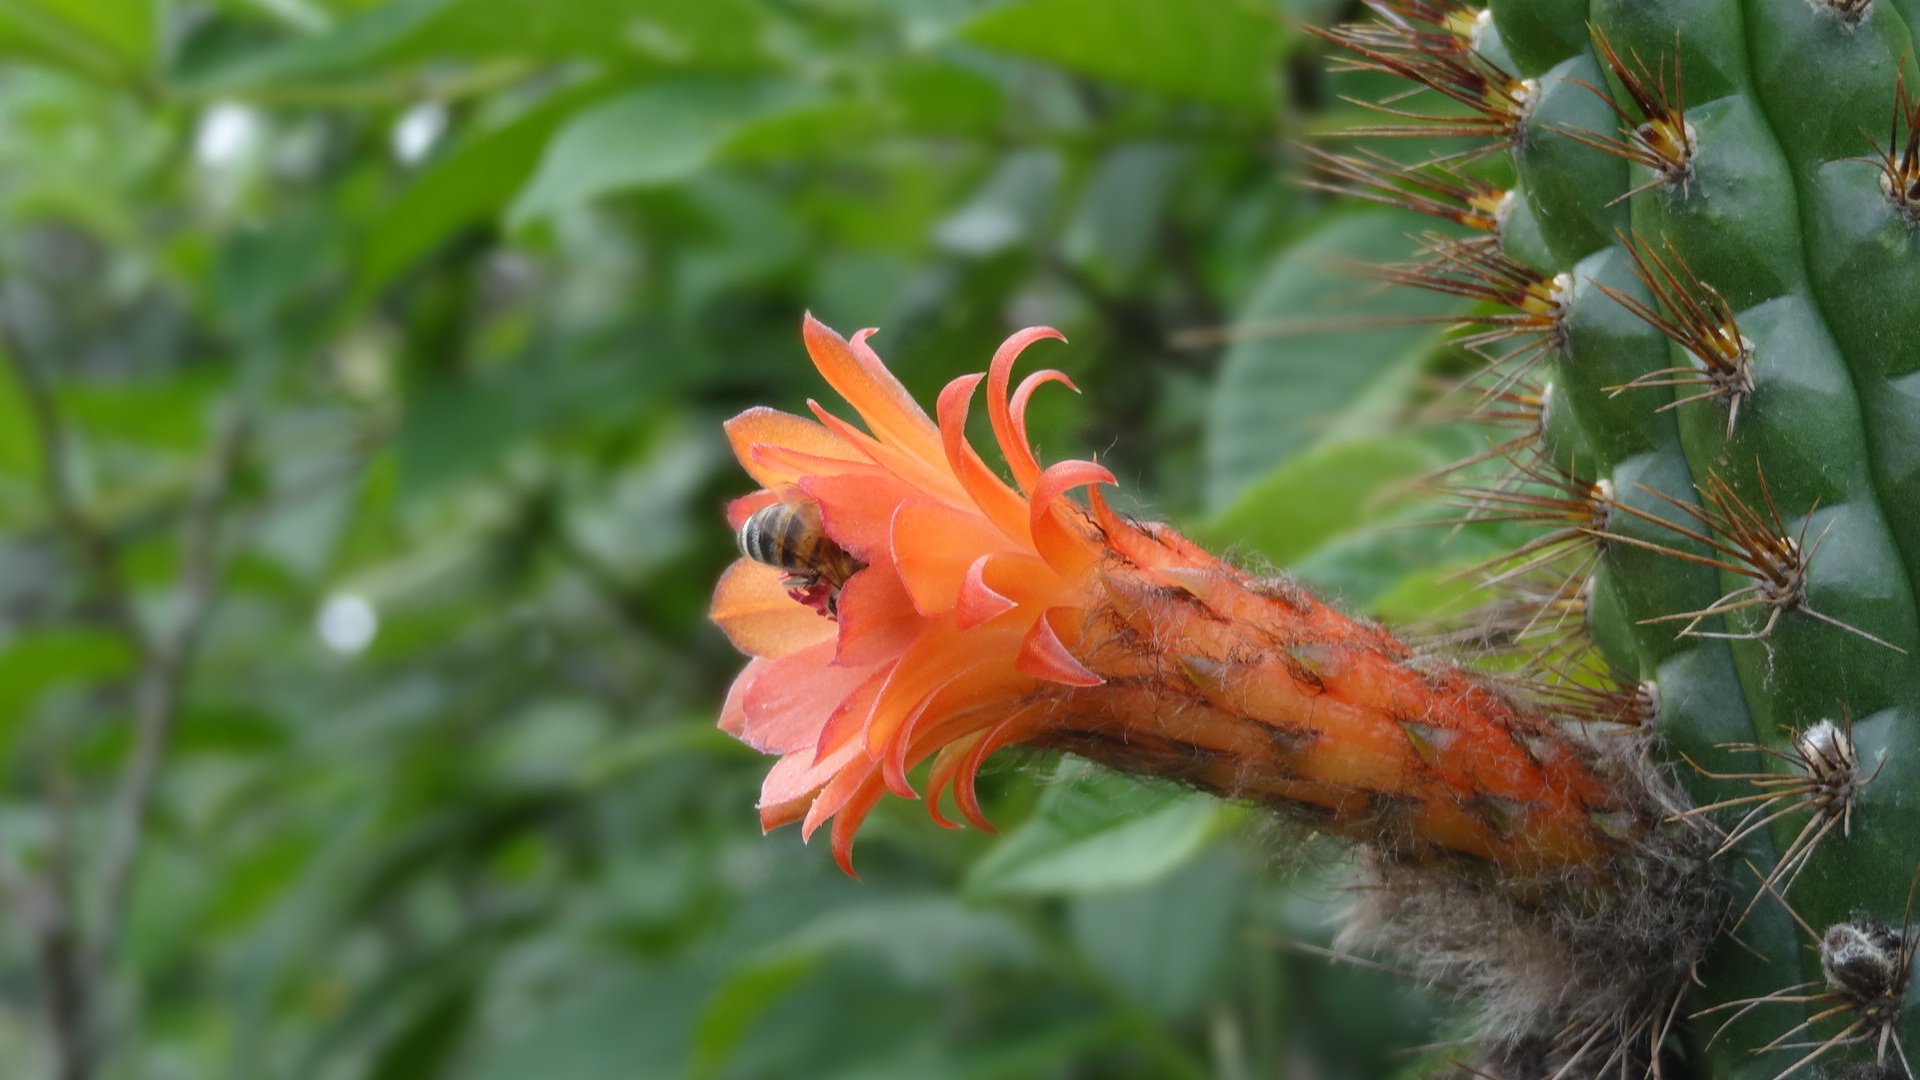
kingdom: Plantae
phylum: Tracheophyta
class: Magnoliopsida
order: Caryophyllales
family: Cactaceae
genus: Borzicactus
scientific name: Borzicactus sepium
